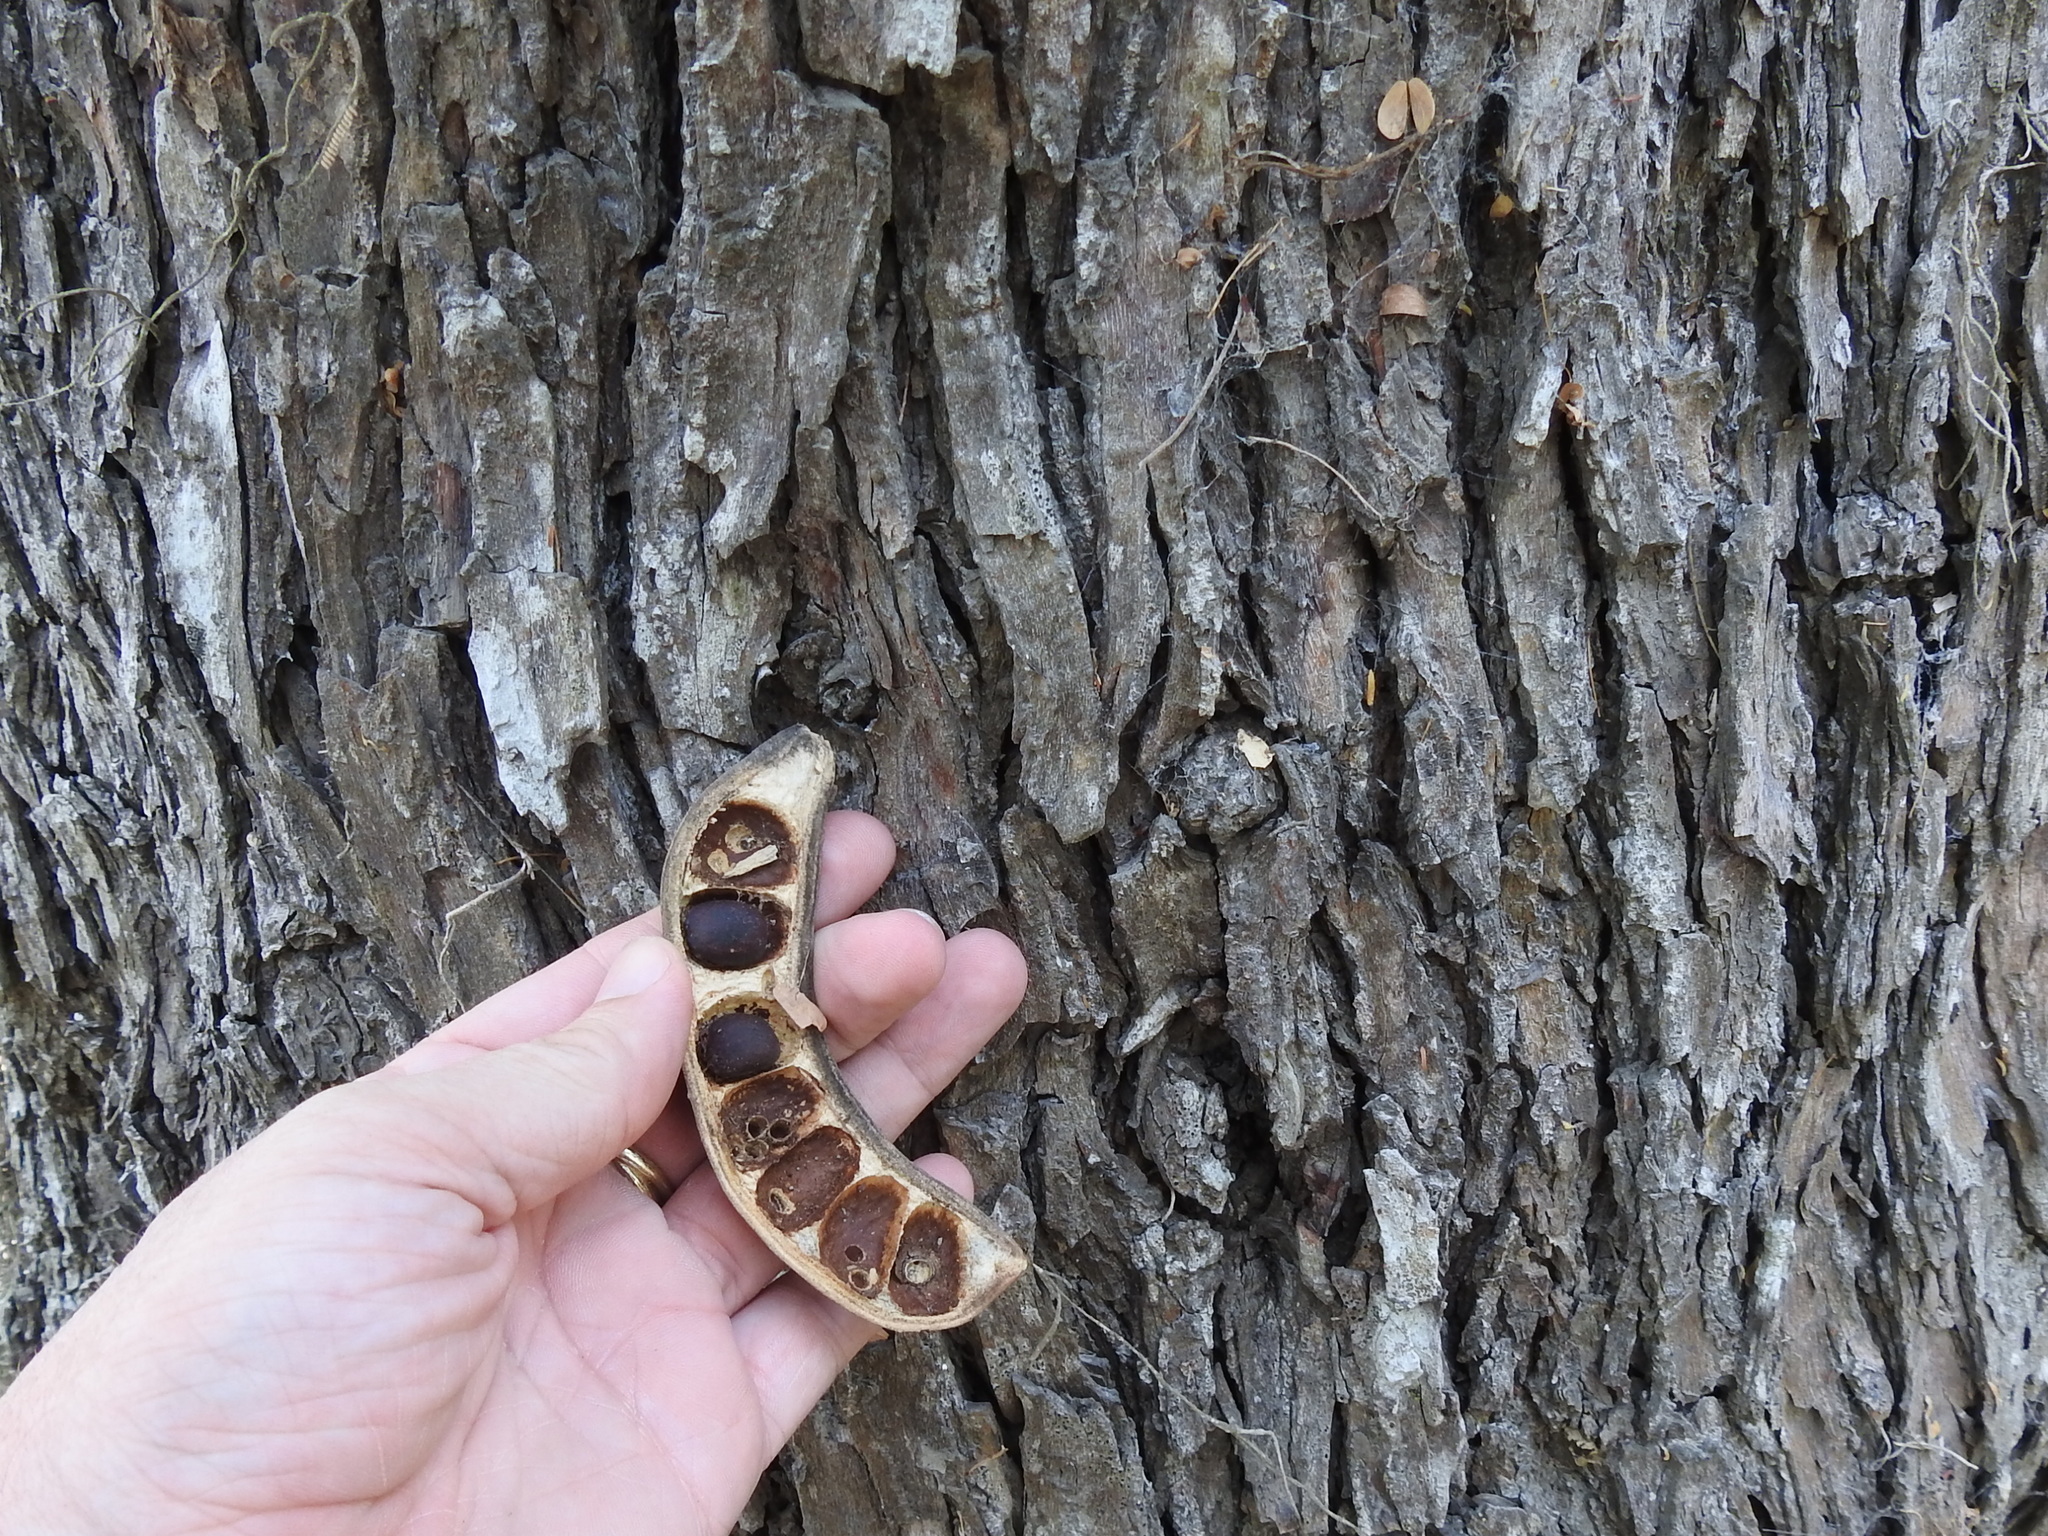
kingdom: Plantae
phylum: Tracheophyta
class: Magnoliopsida
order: Fabales
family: Fabaceae
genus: Ebenopsis
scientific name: Ebenopsis ebano
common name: Ebony blackbead
